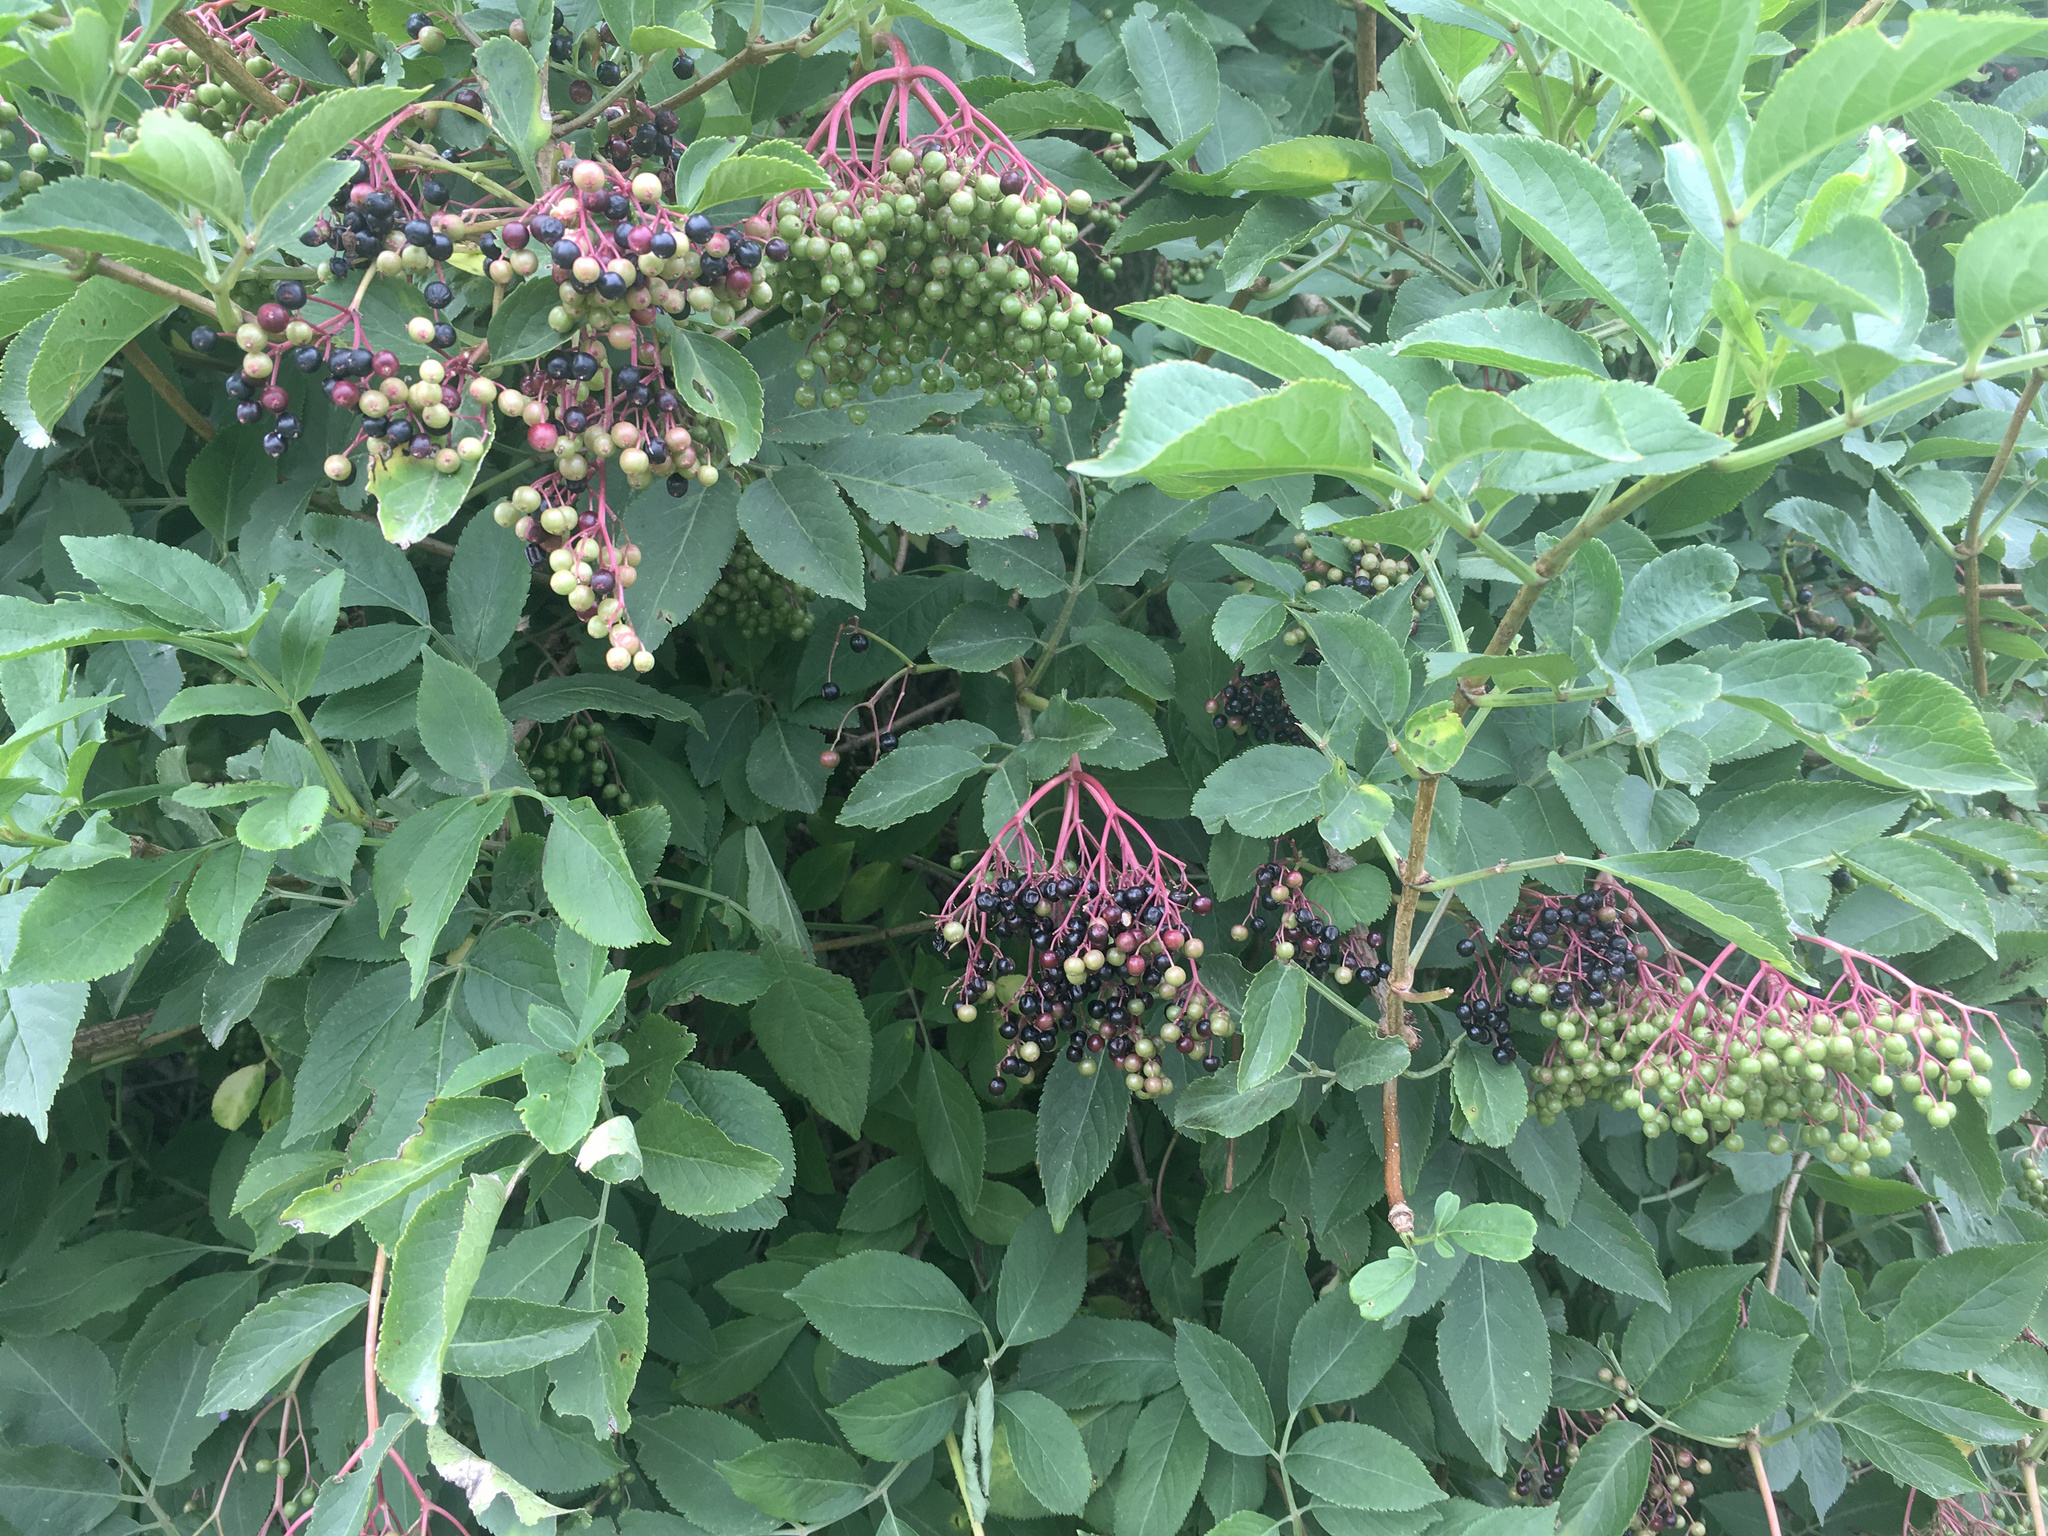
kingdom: Plantae
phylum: Tracheophyta
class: Magnoliopsida
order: Dipsacales
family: Viburnaceae
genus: Sambucus
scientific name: Sambucus nigra
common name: Elder
